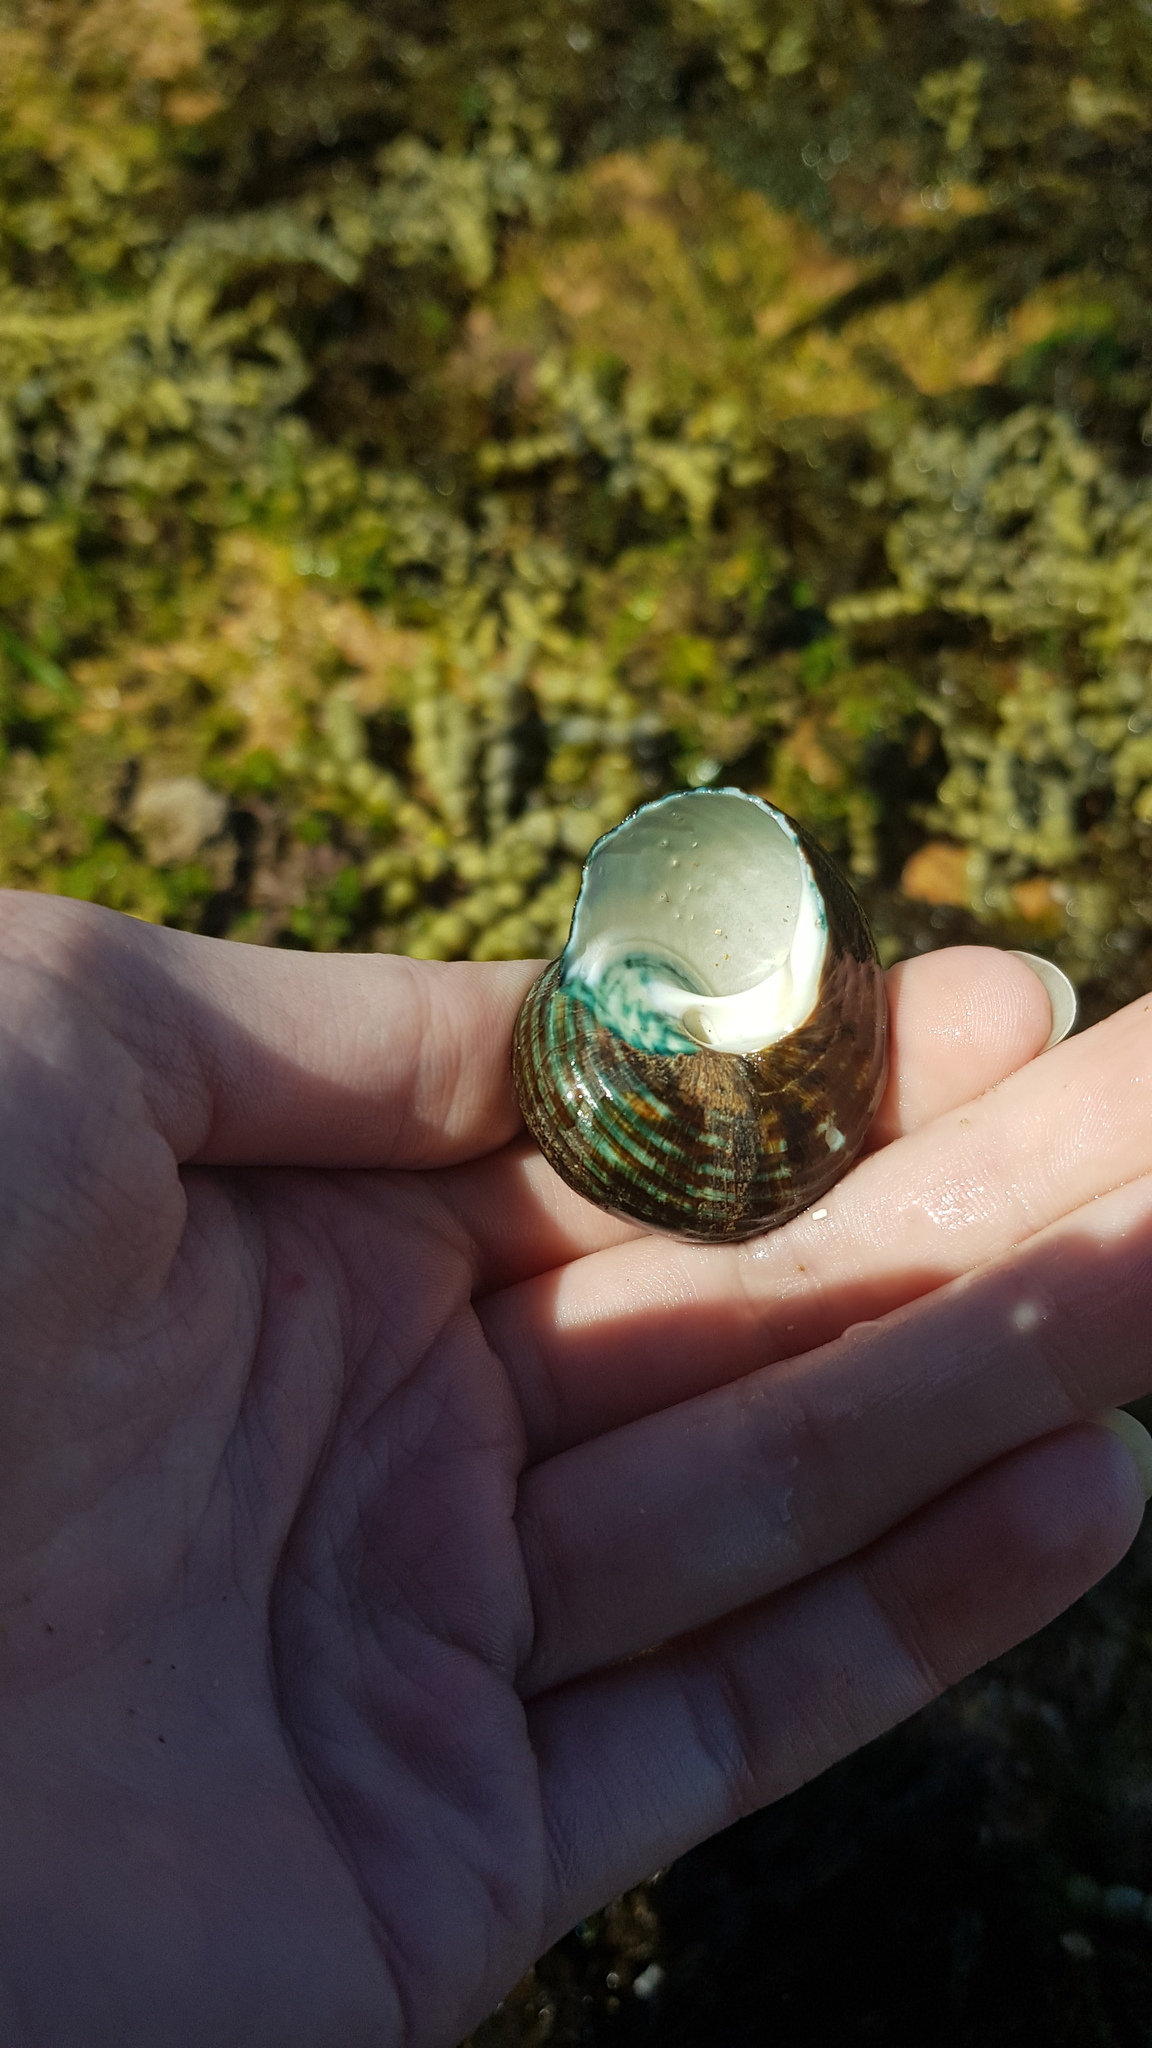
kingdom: Animalia
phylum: Mollusca
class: Gastropoda
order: Trochida
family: Turbinidae
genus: Lunella
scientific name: Lunella undulata
